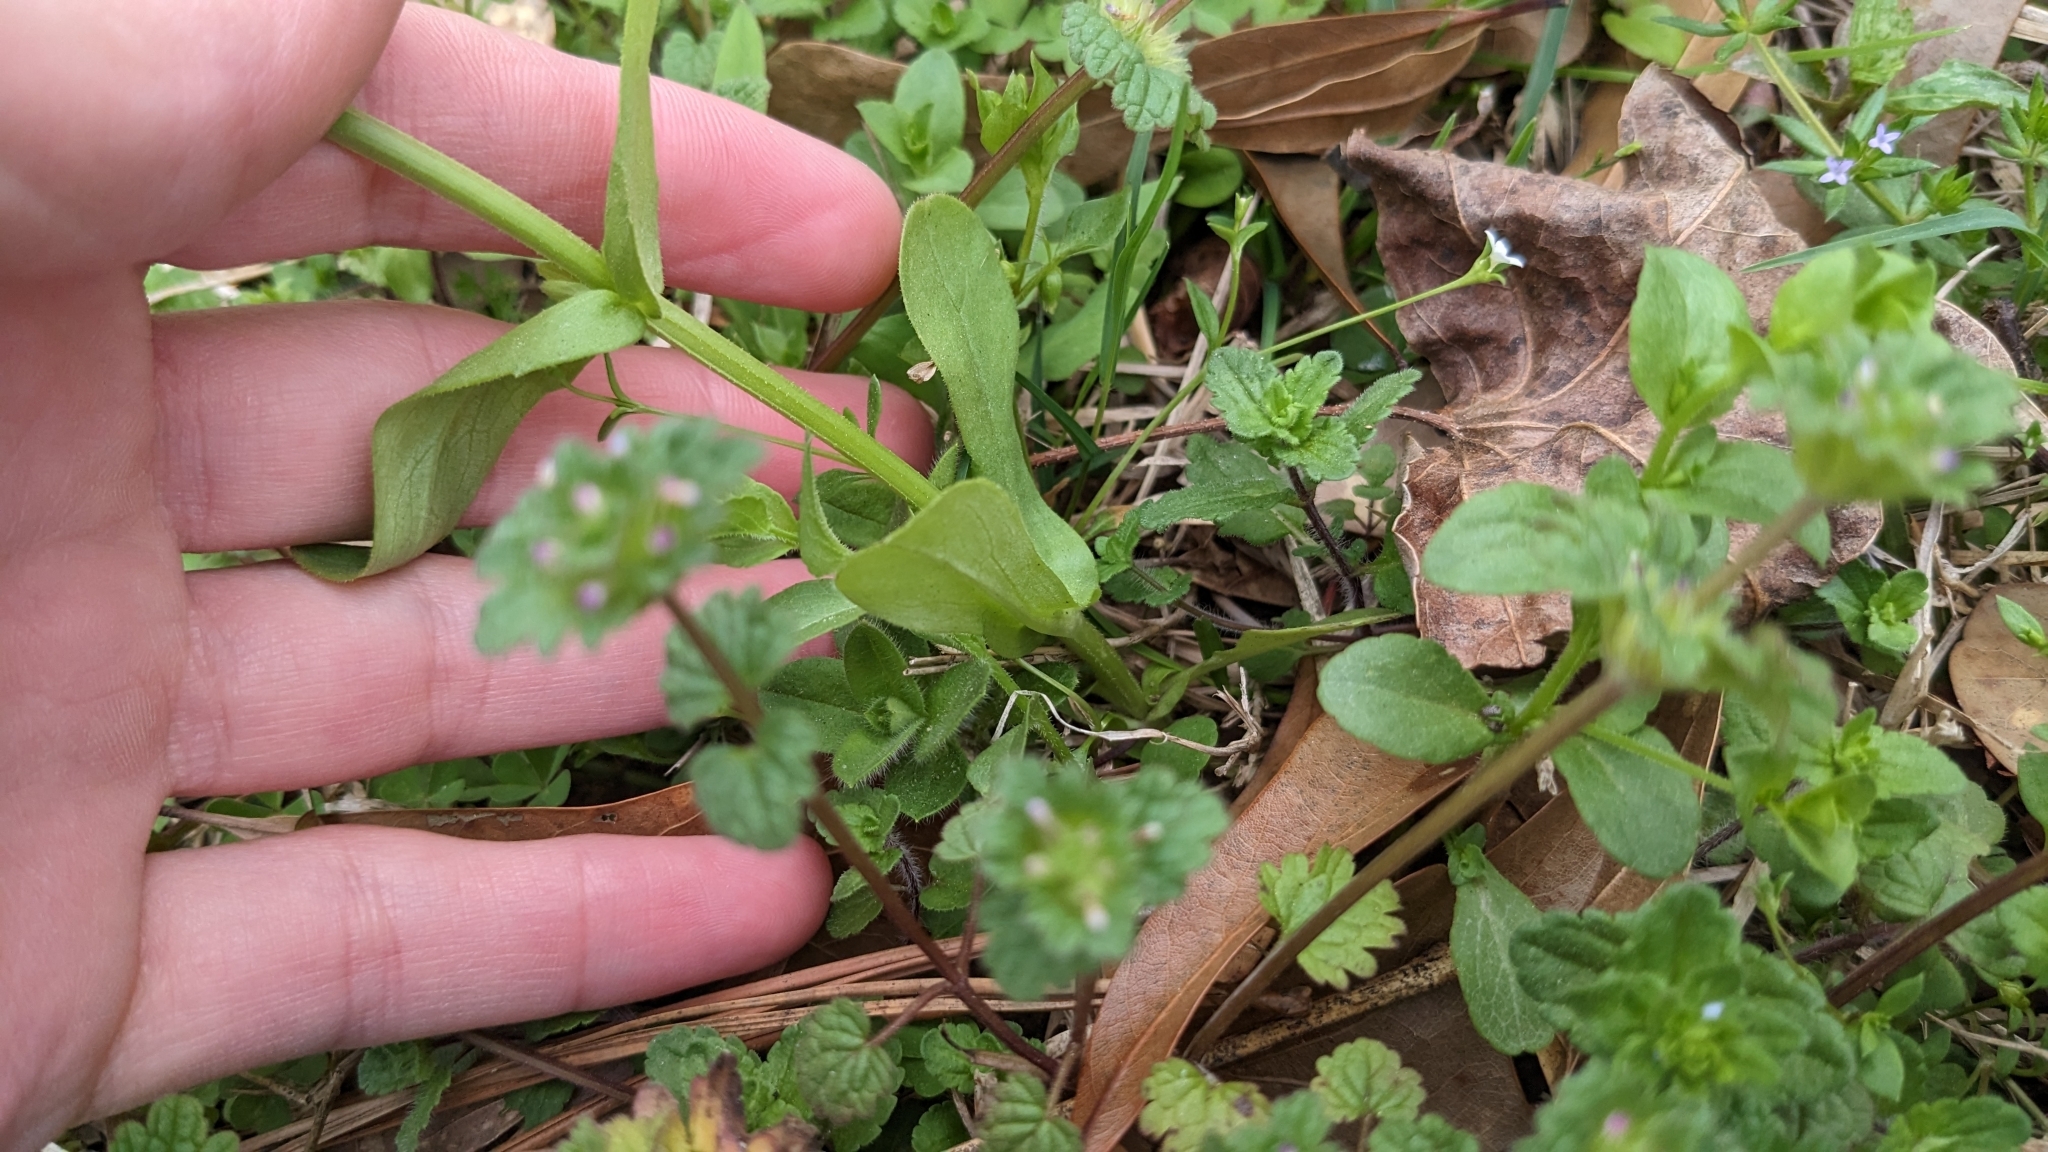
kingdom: Plantae
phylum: Tracheophyta
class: Magnoliopsida
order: Dipsacales
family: Caprifoliaceae
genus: Valerianella
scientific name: Valerianella radiata
